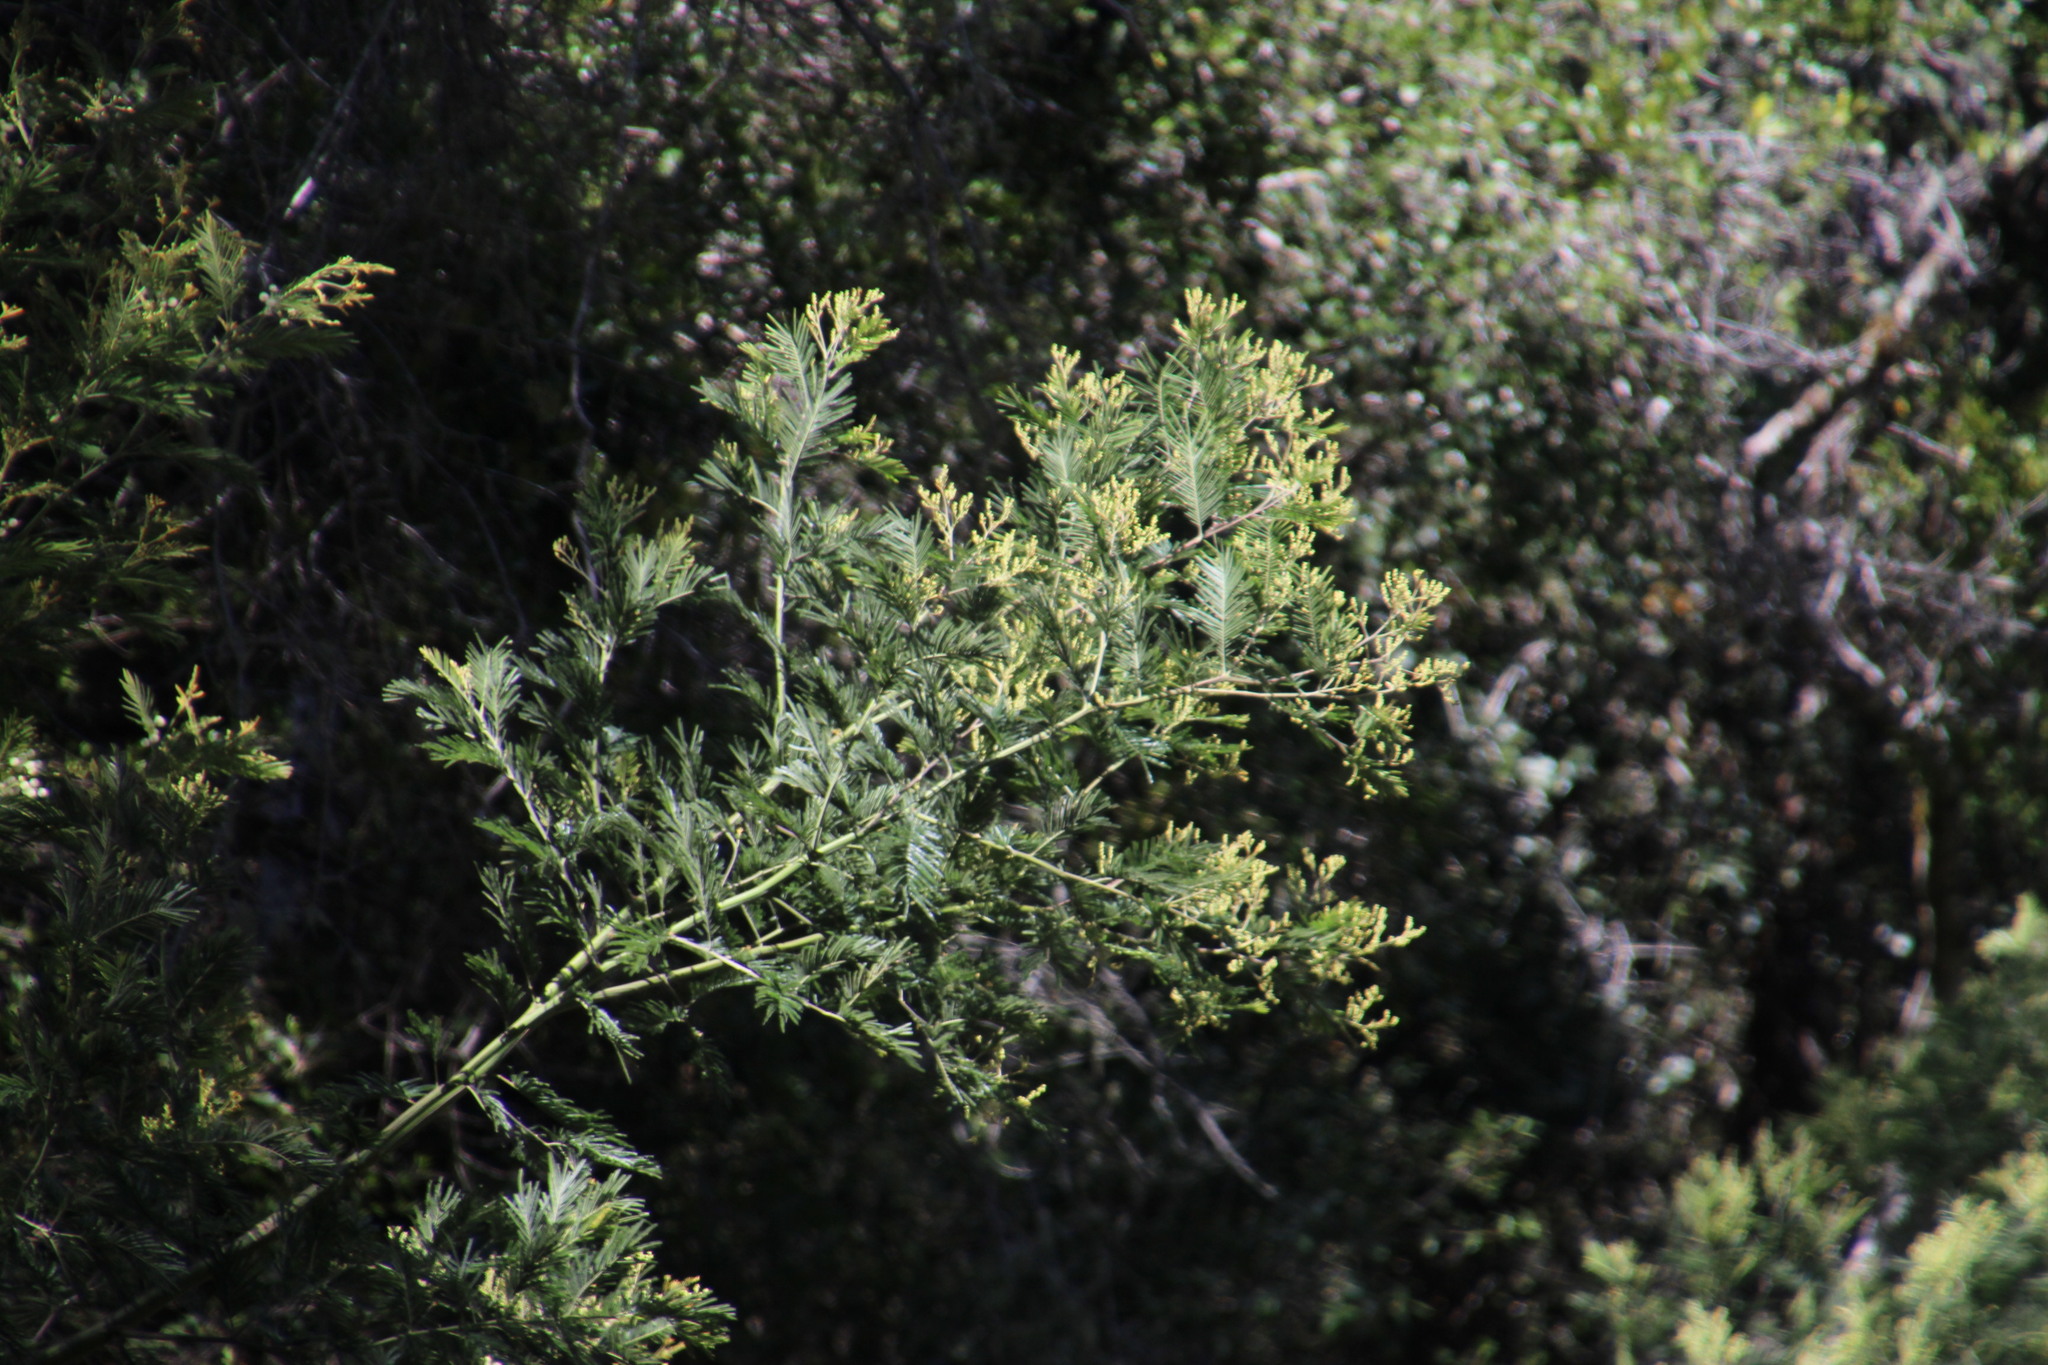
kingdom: Plantae
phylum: Tracheophyta
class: Magnoliopsida
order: Fabales
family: Fabaceae
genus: Acacia
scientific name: Acacia mearnsii
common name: Black wattle
